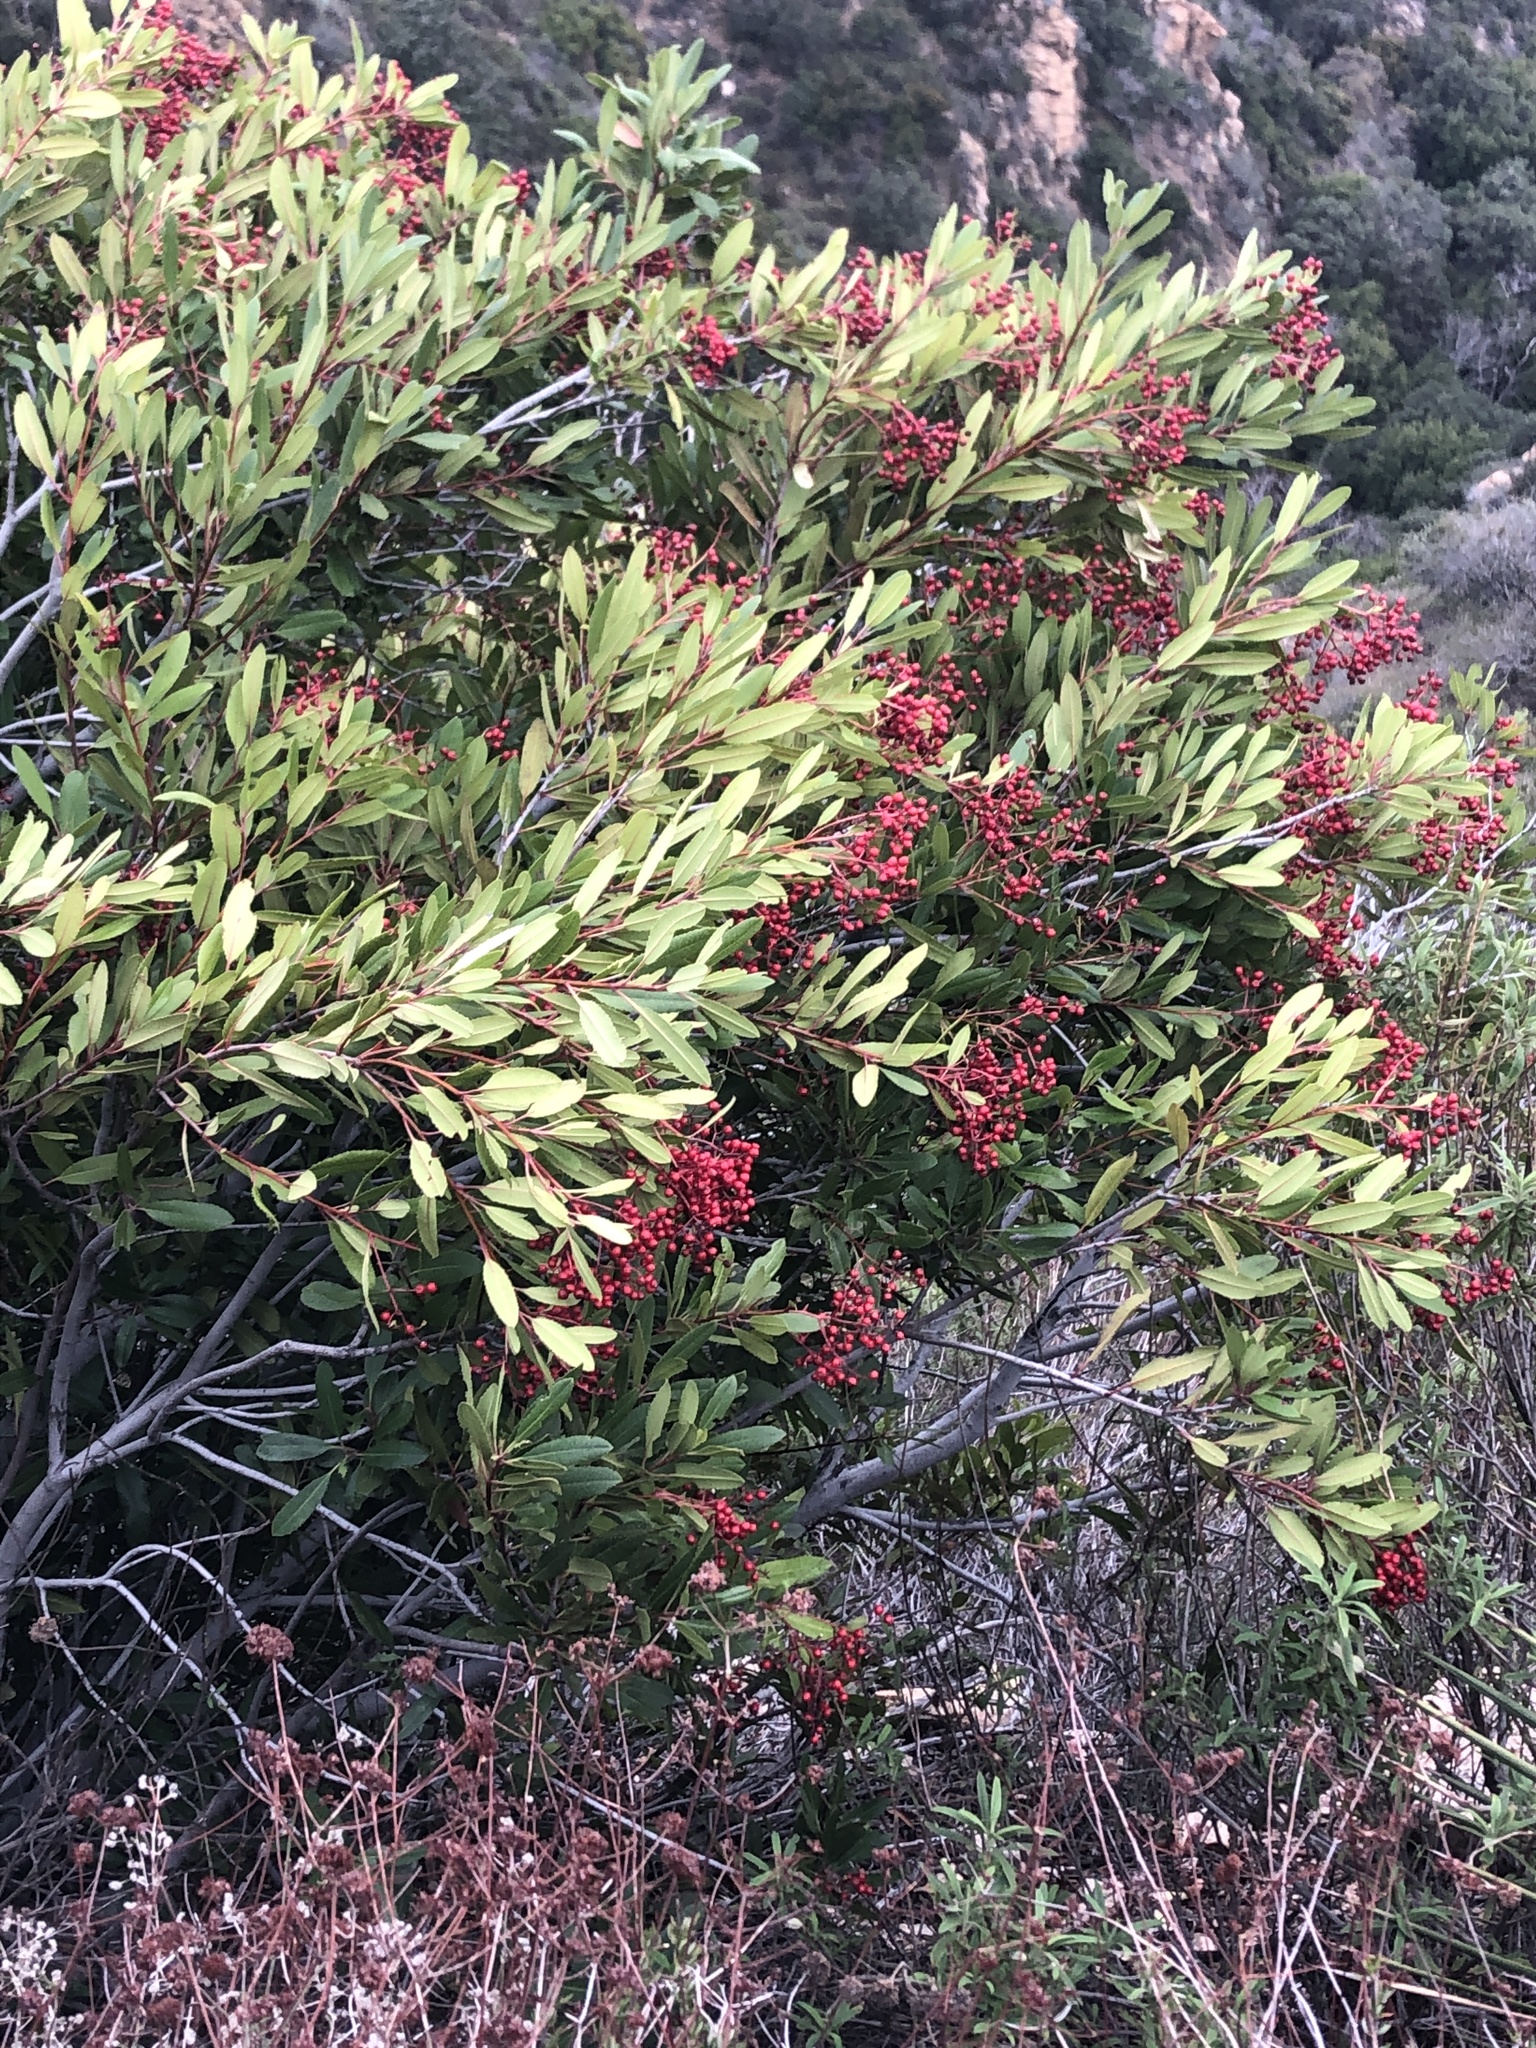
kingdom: Plantae
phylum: Tracheophyta
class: Magnoliopsida
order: Rosales
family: Rosaceae
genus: Heteromeles
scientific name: Heteromeles arbutifolia
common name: California-holly
